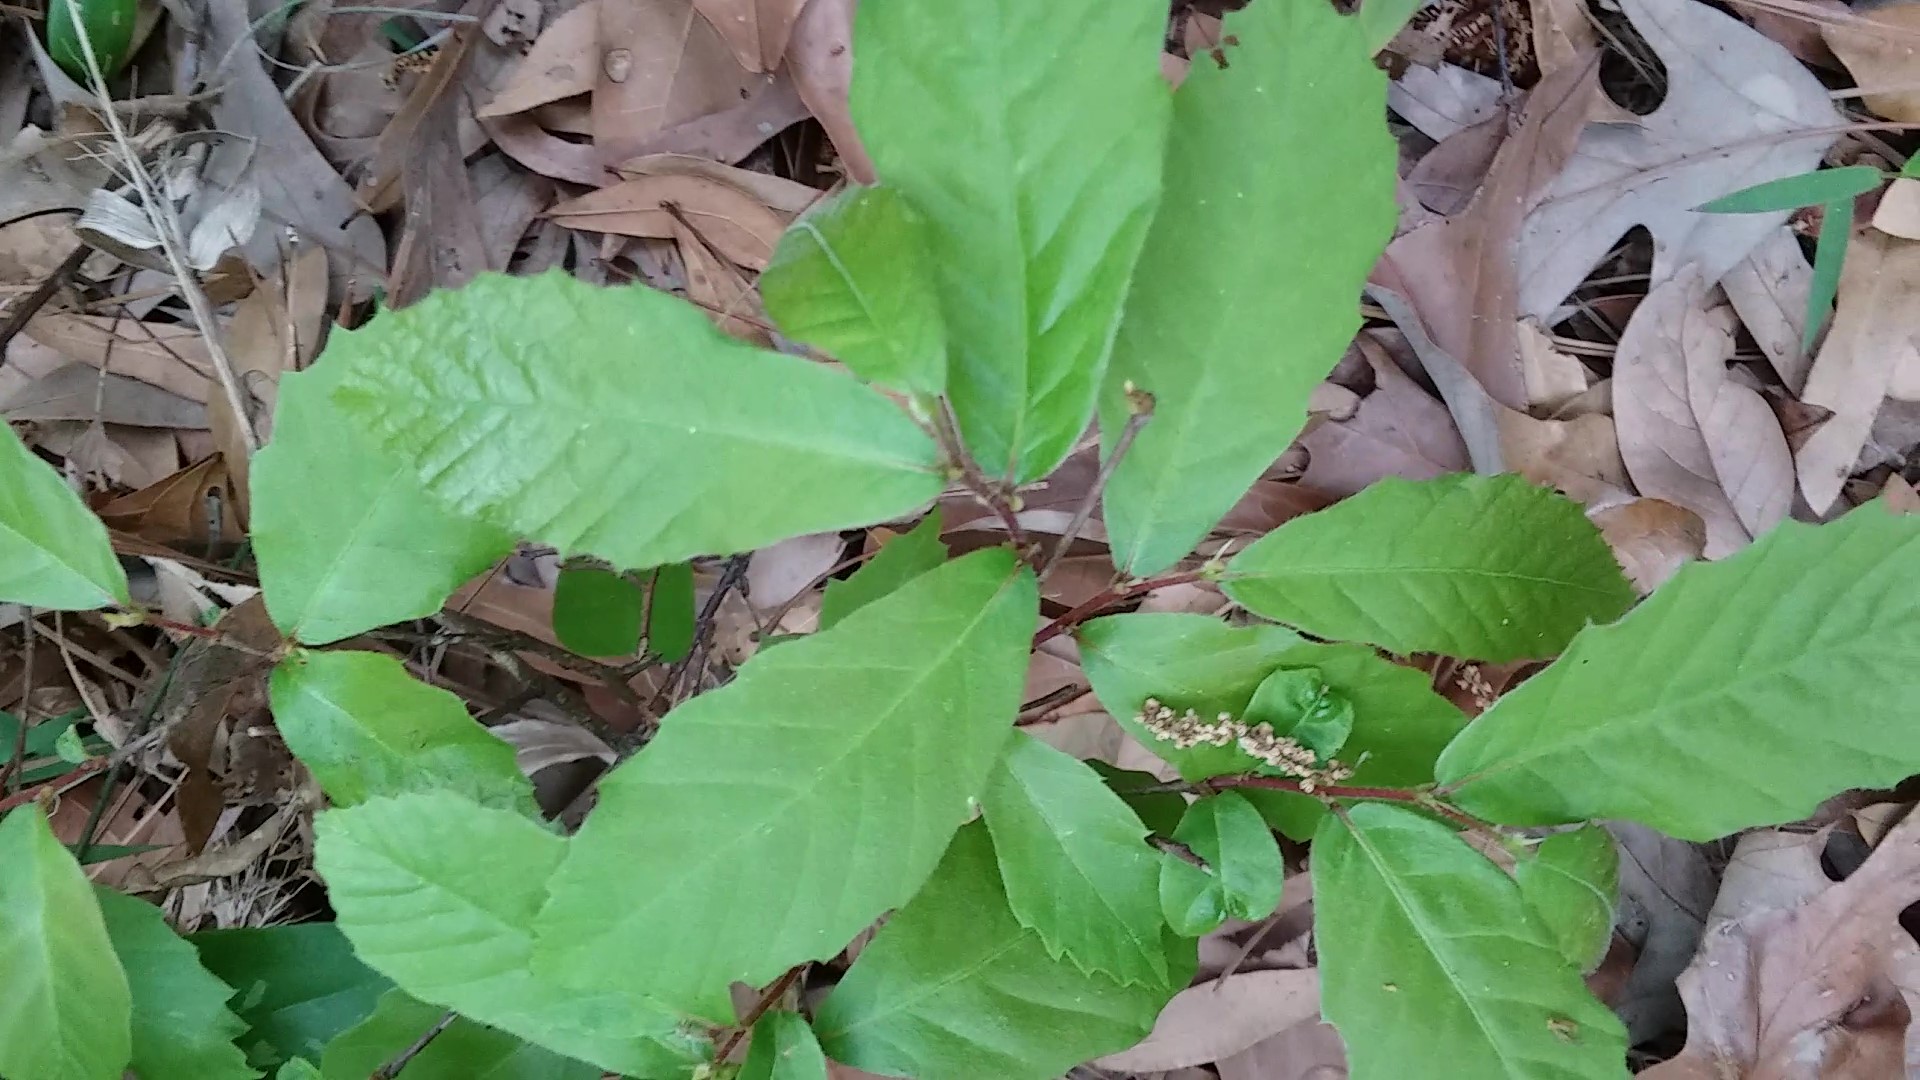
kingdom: Plantae
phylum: Tracheophyta
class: Magnoliopsida
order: Fagales
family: Fagaceae
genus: Castanea
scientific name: Castanea pumila
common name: Chinkapin
